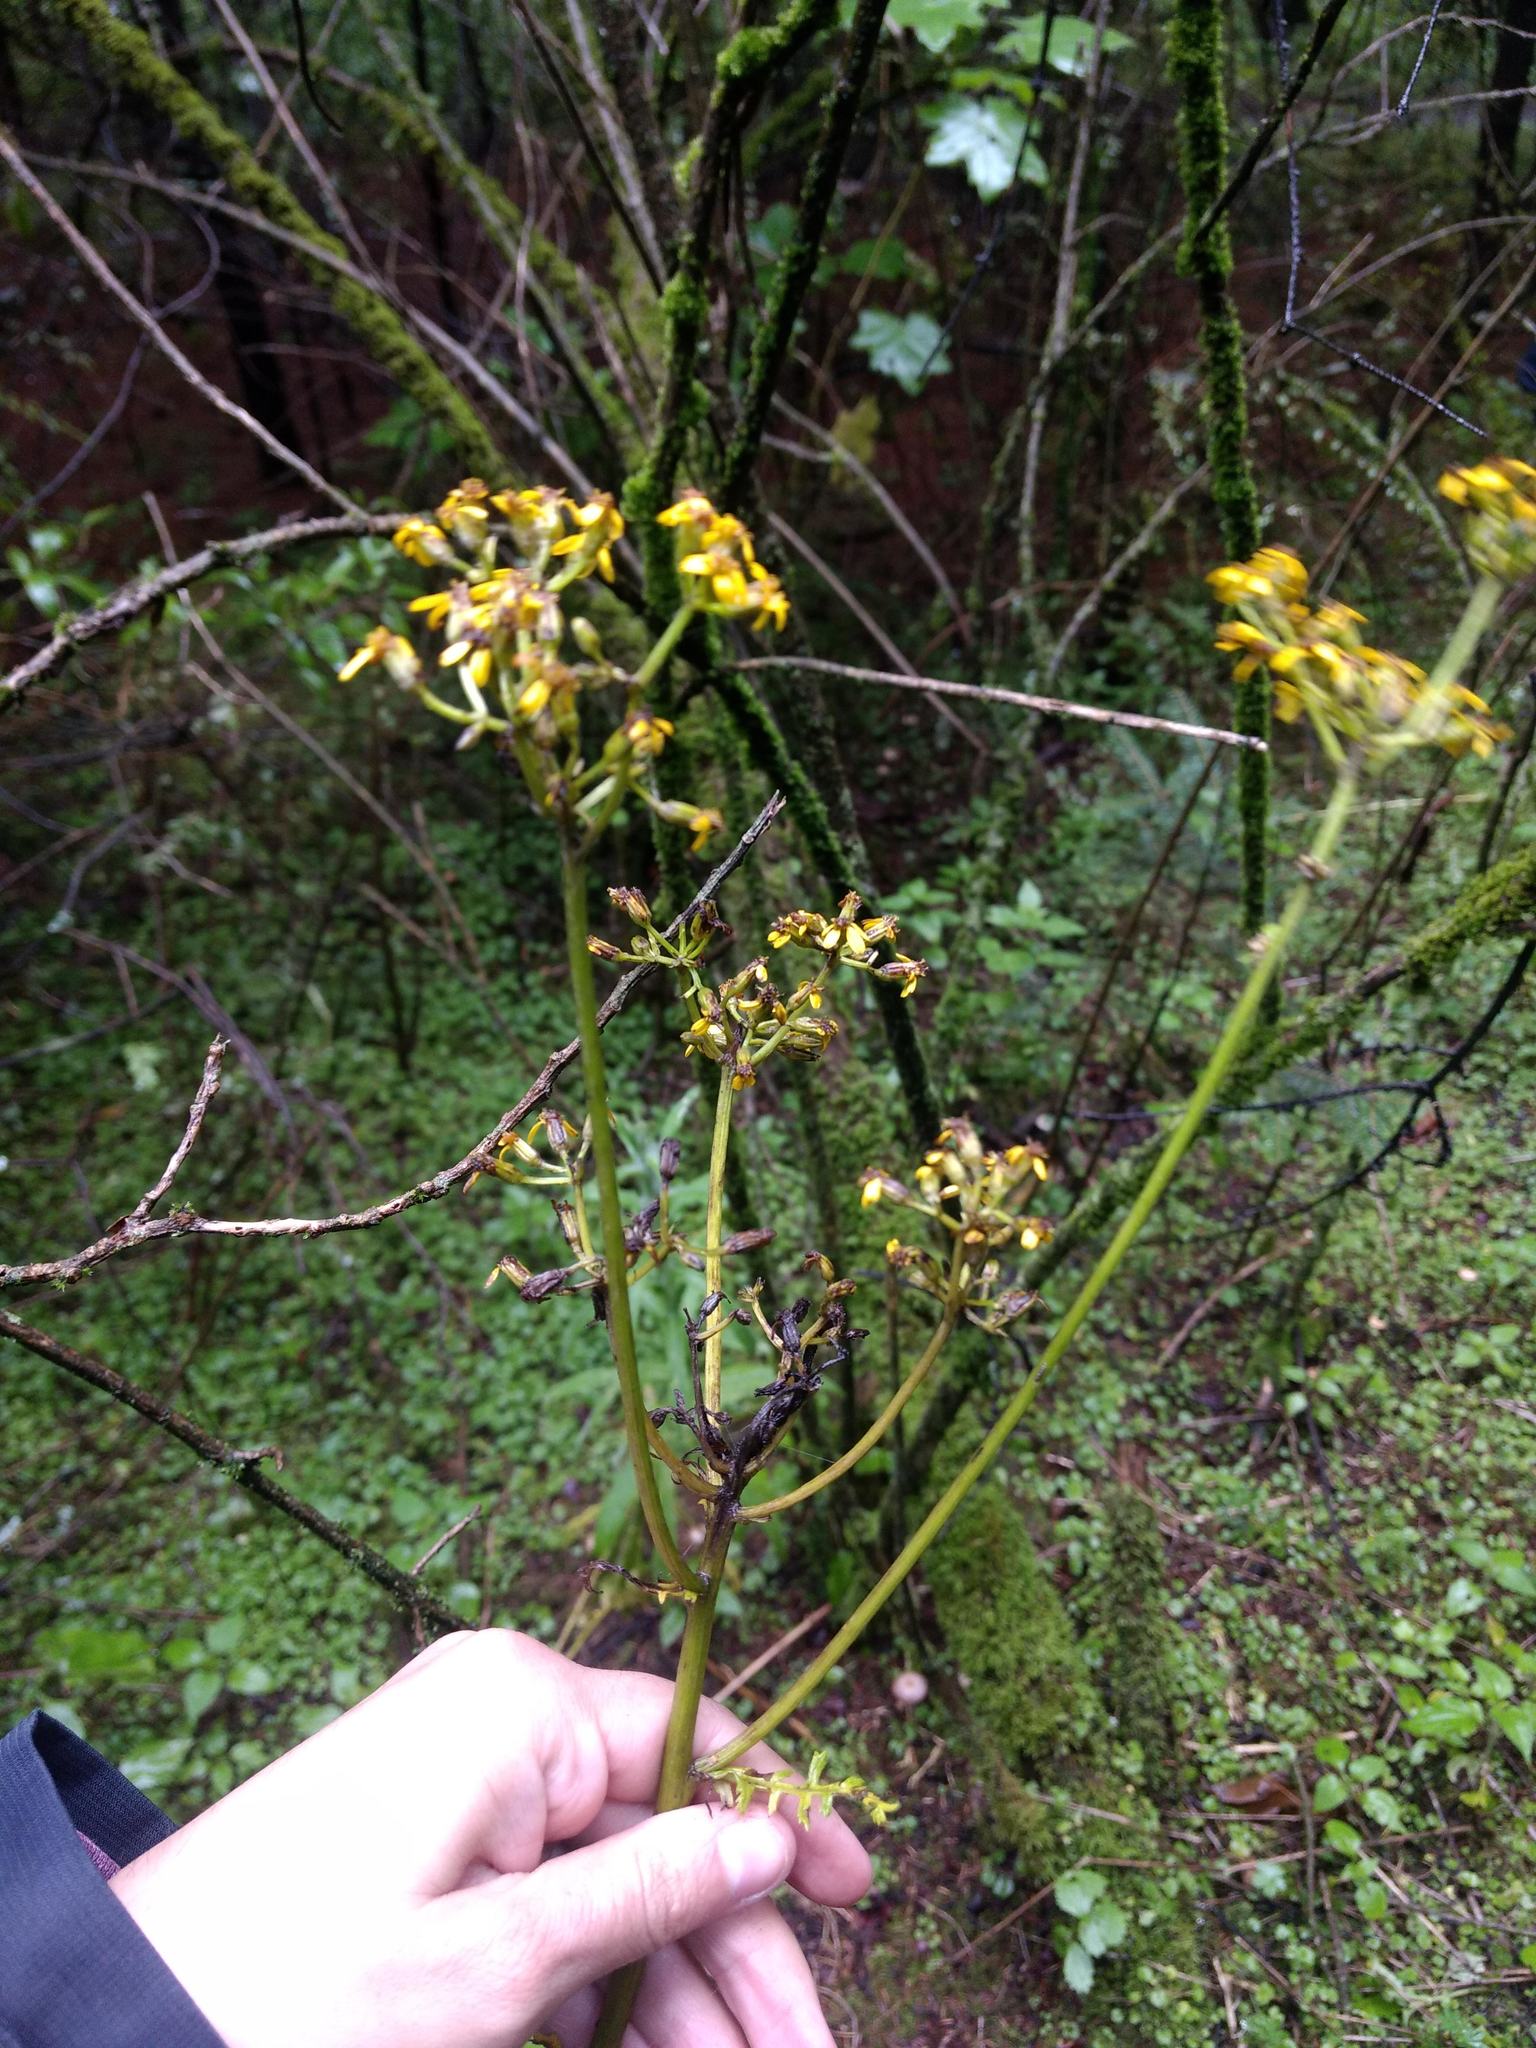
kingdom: Plantae
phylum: Tracheophyta
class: Magnoliopsida
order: Asterales
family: Asteraceae
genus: Packera
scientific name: Packera sanguisorbae
